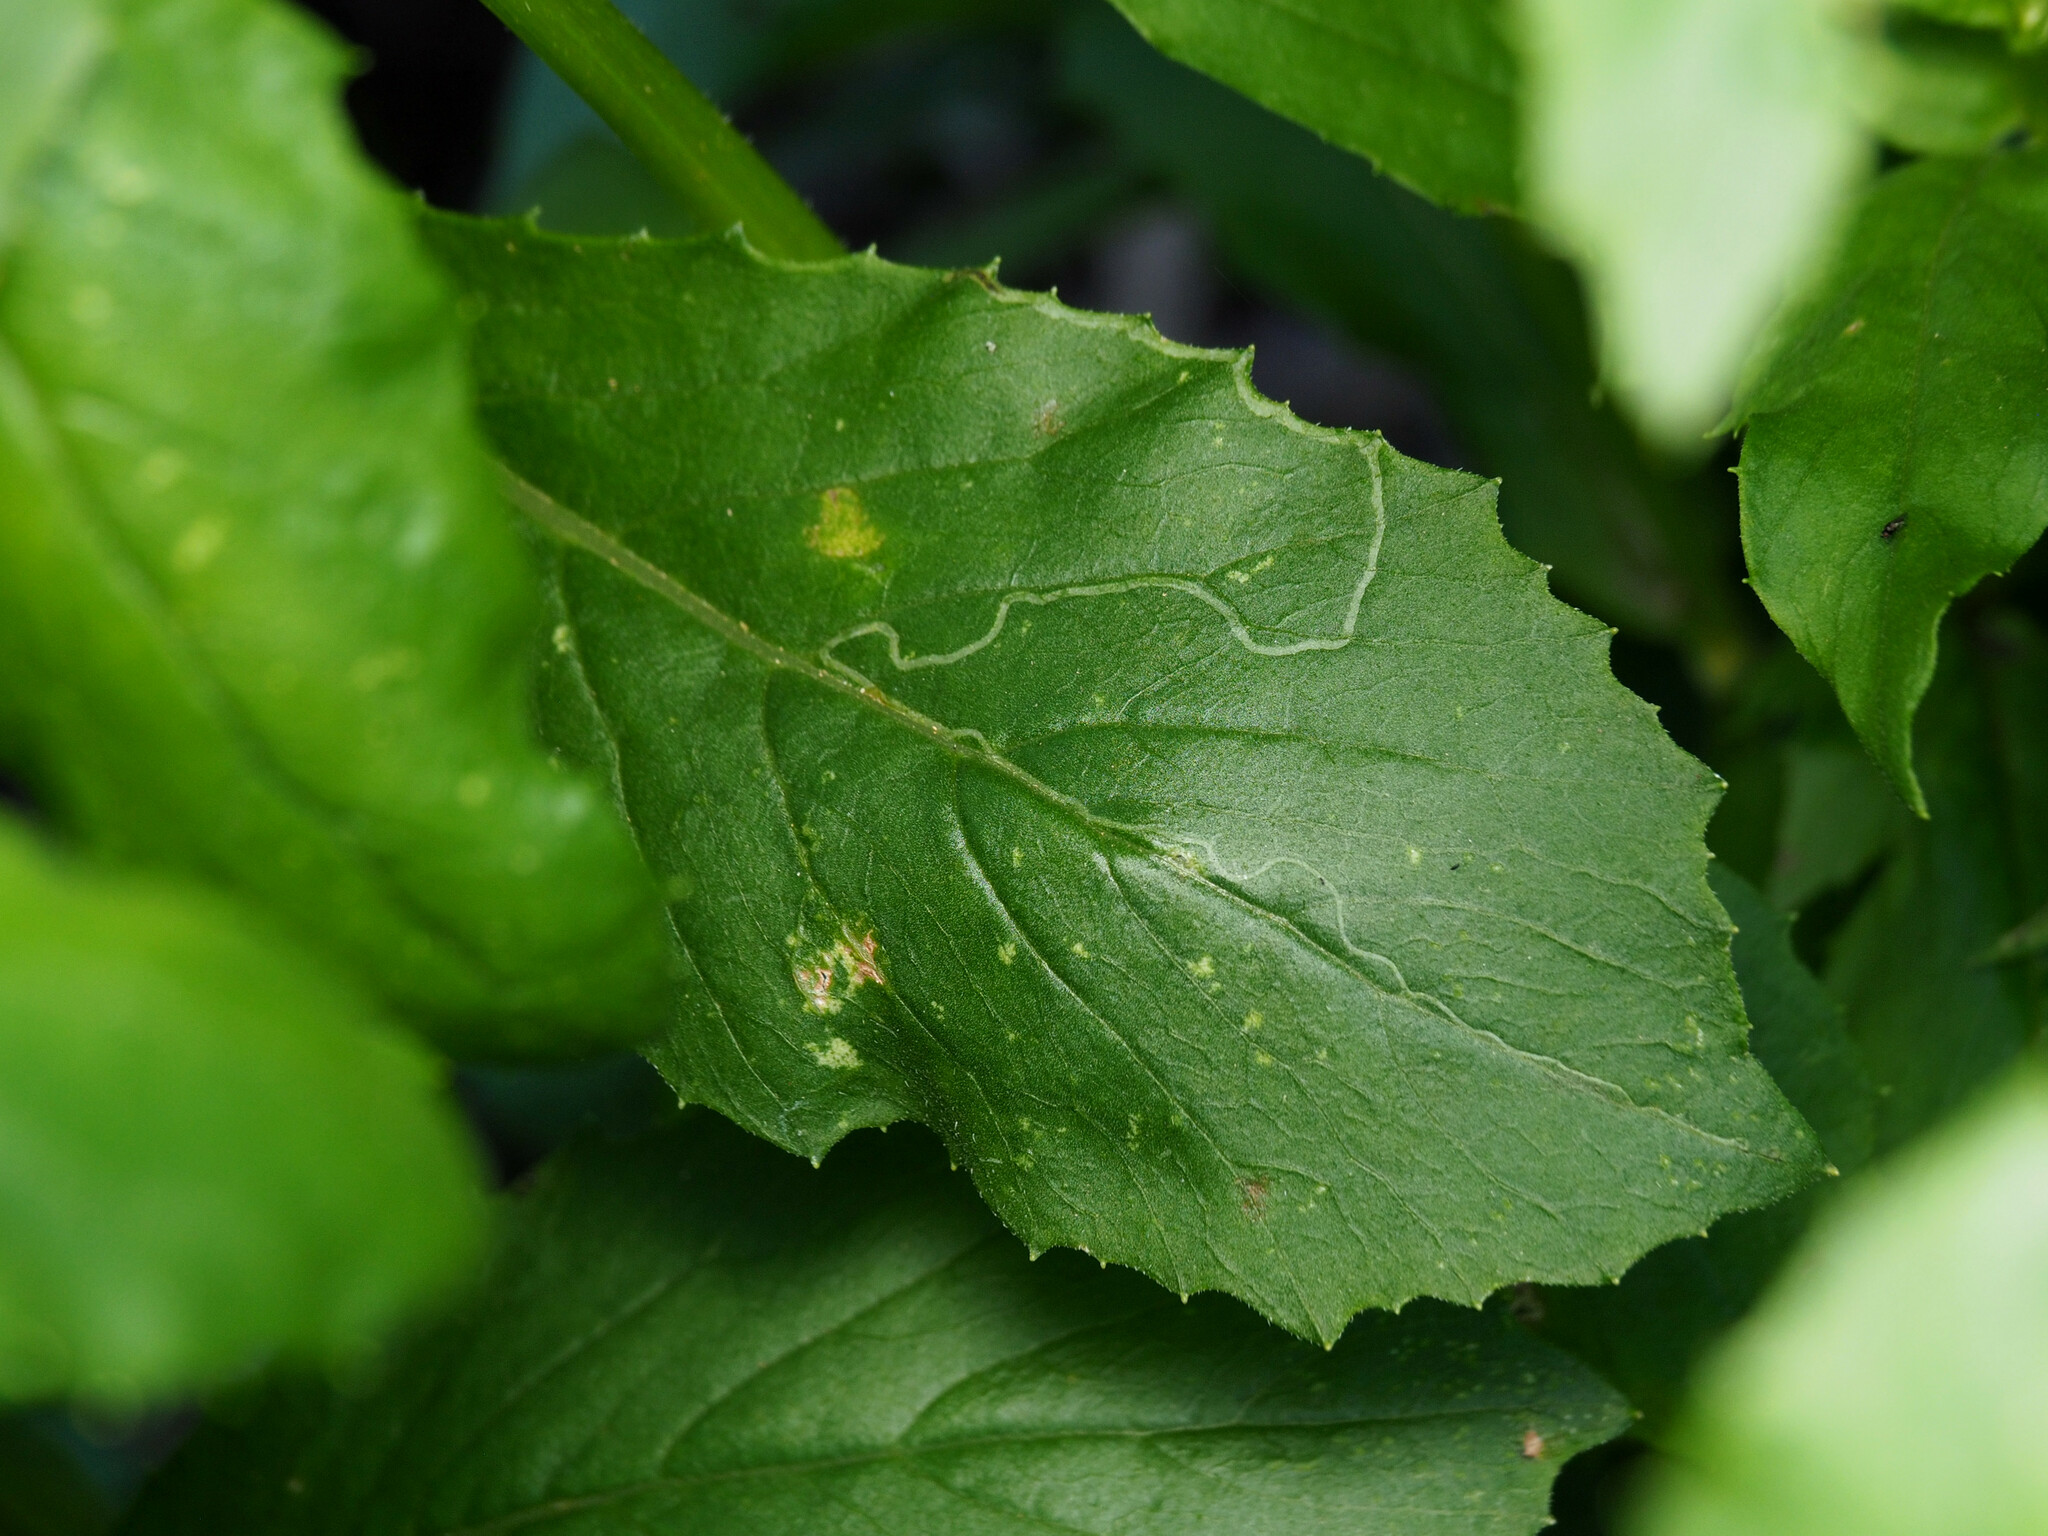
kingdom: Animalia
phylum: Arthropoda
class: Insecta
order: Lepidoptera
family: Gracillariidae
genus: Phyllocnistis
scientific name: Phyllocnistis insignis
